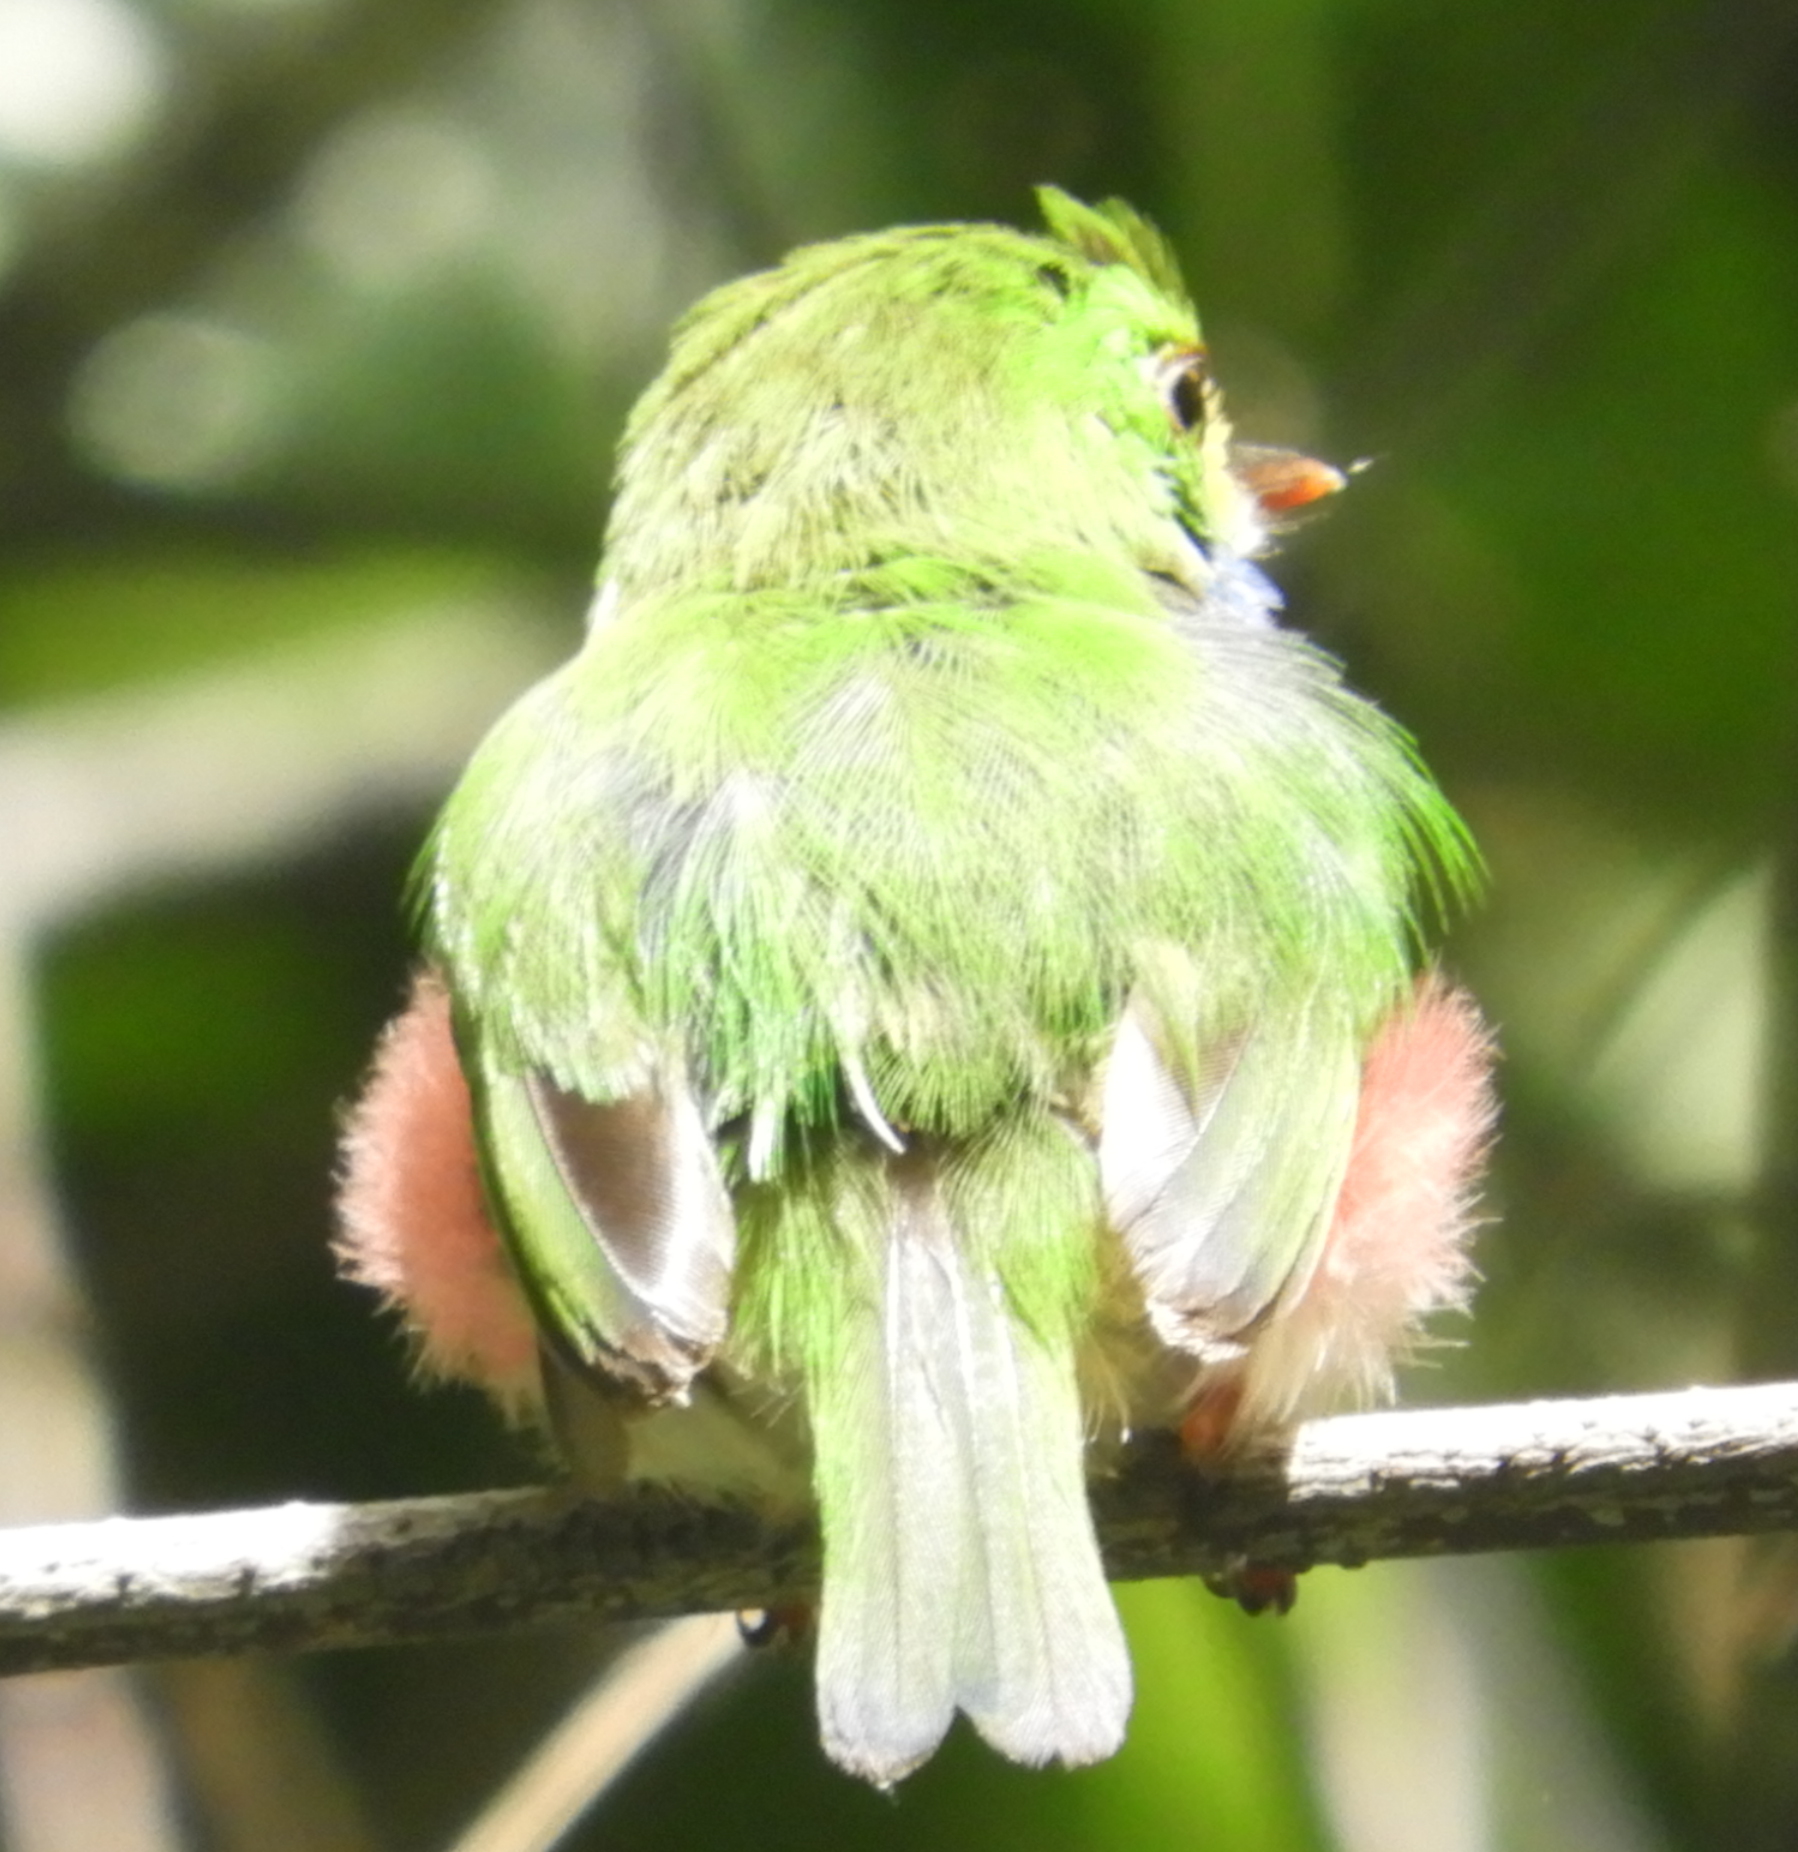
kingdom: Animalia
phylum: Chordata
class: Aves
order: Coraciiformes
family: Todidae
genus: Todus
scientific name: Todus multicolor
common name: Cuban tody
